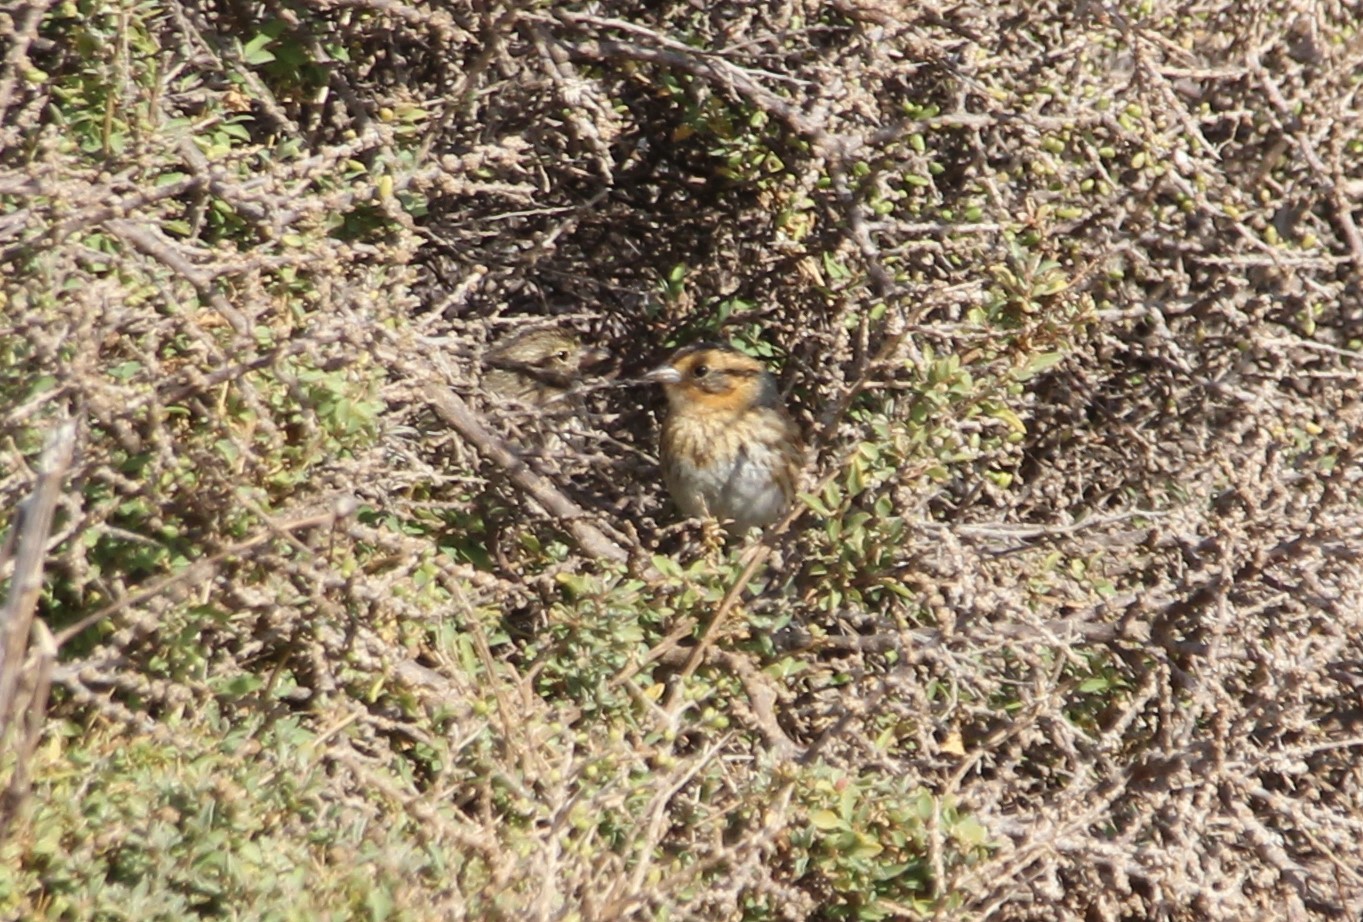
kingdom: Animalia
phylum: Chordata
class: Aves
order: Passeriformes
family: Passerellidae
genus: Ammospiza
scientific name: Ammospiza nelsoni
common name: Nelson's sparrow
